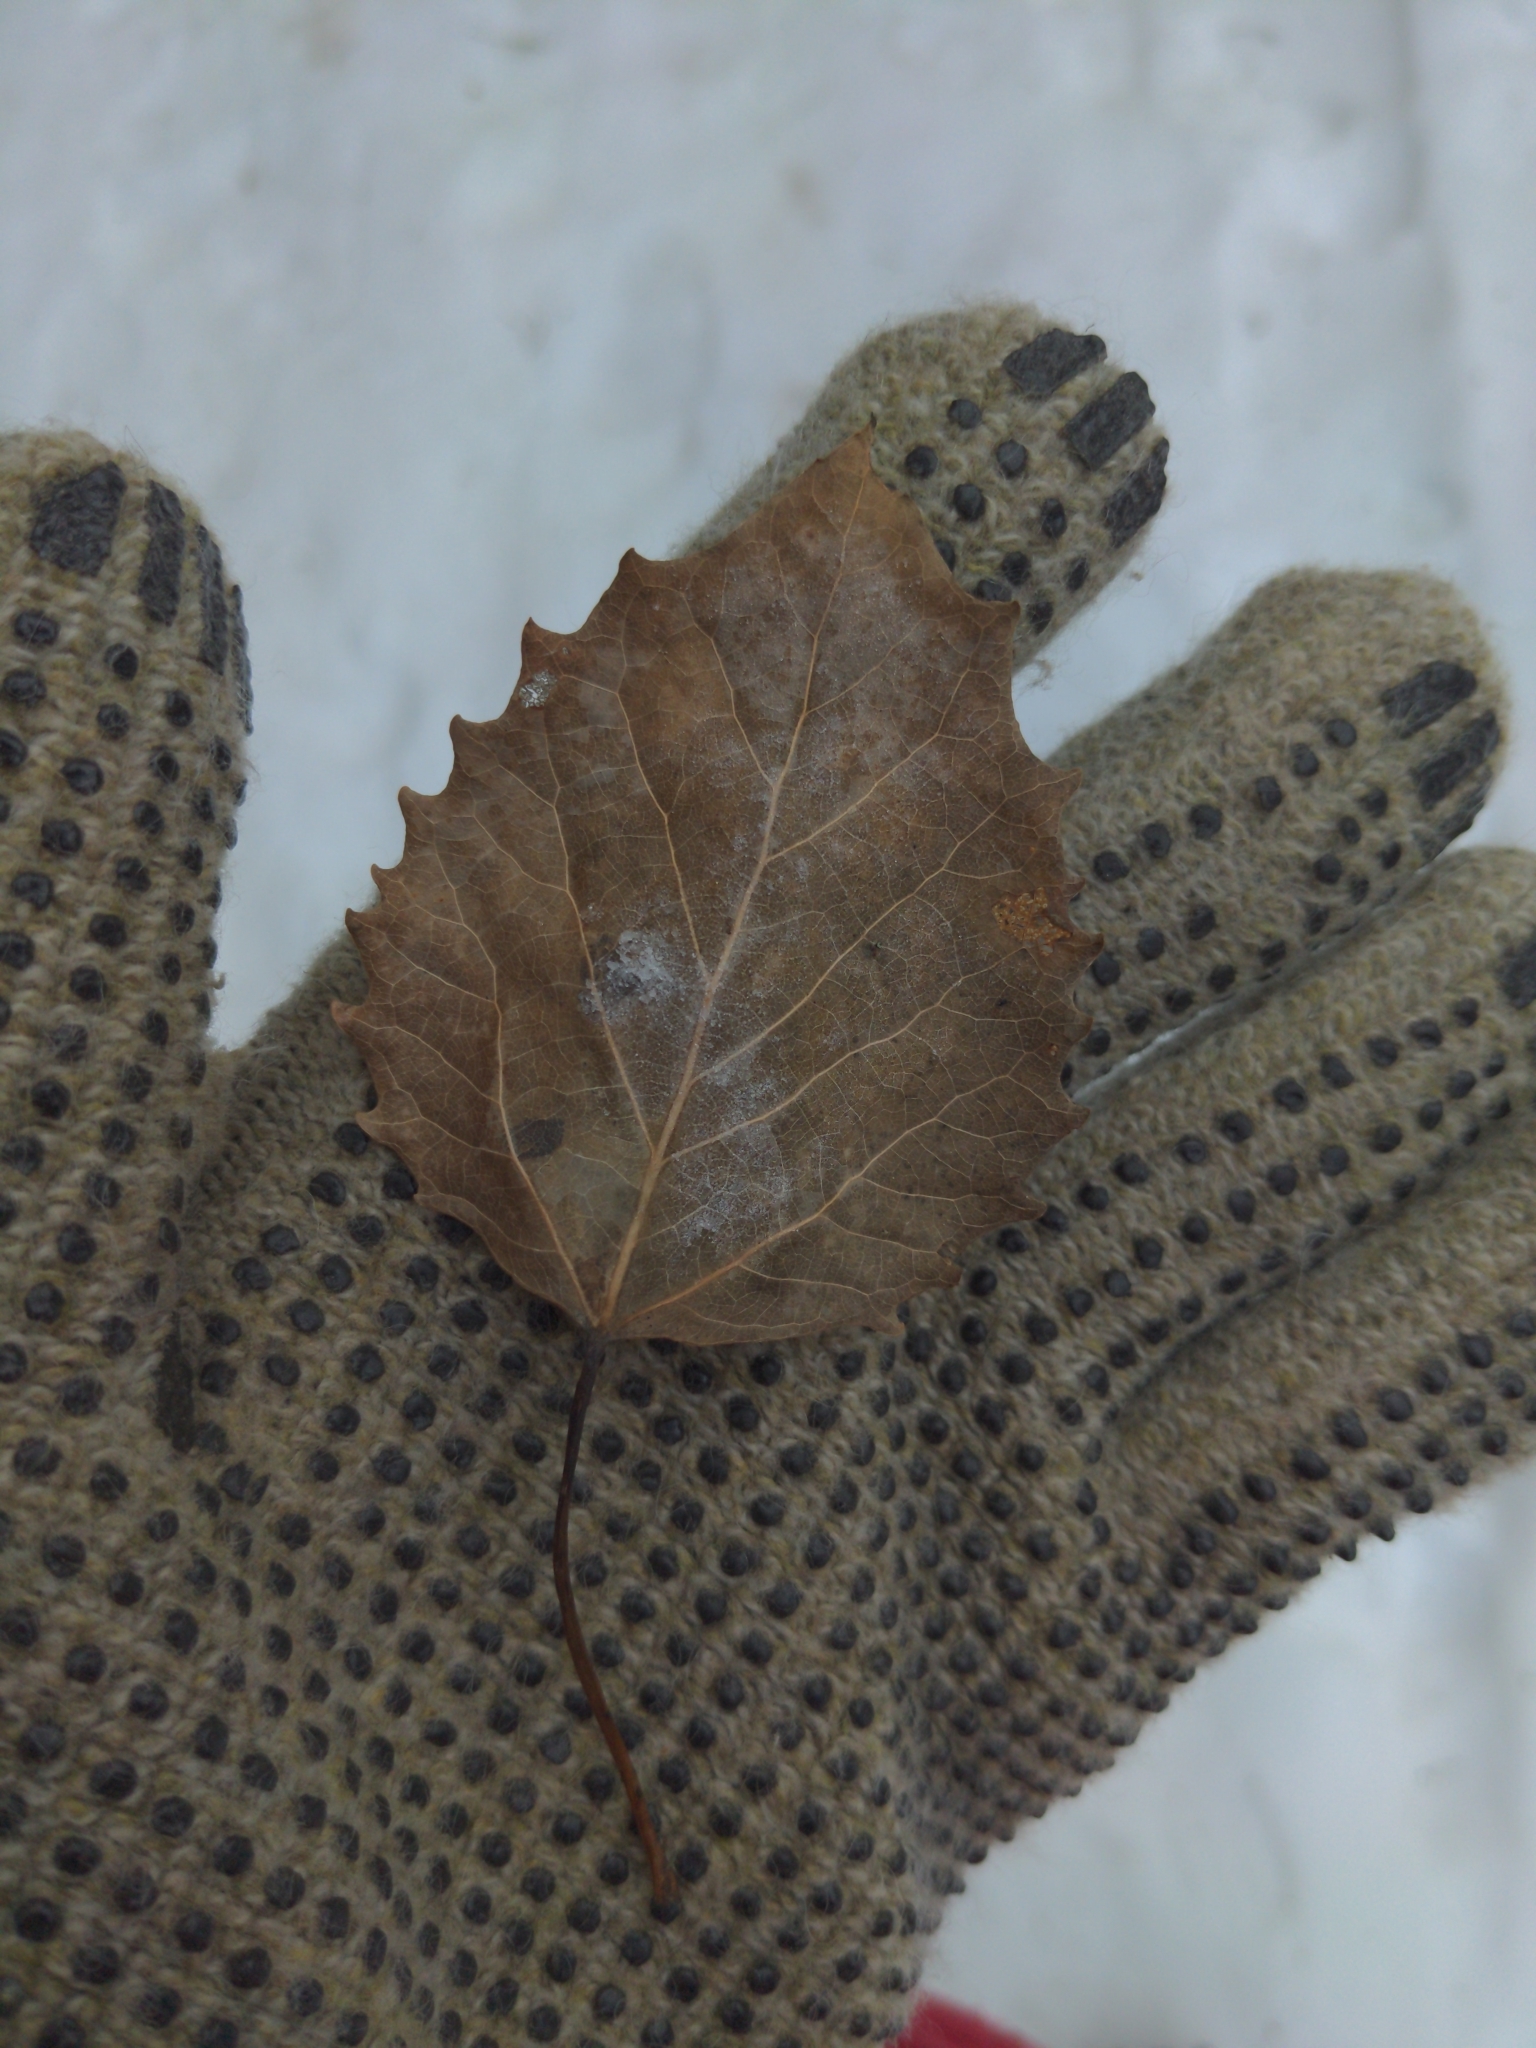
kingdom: Plantae
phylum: Tracheophyta
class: Magnoliopsida
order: Malpighiales
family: Salicaceae
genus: Populus
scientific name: Populus grandidentata
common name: Bigtooth aspen
